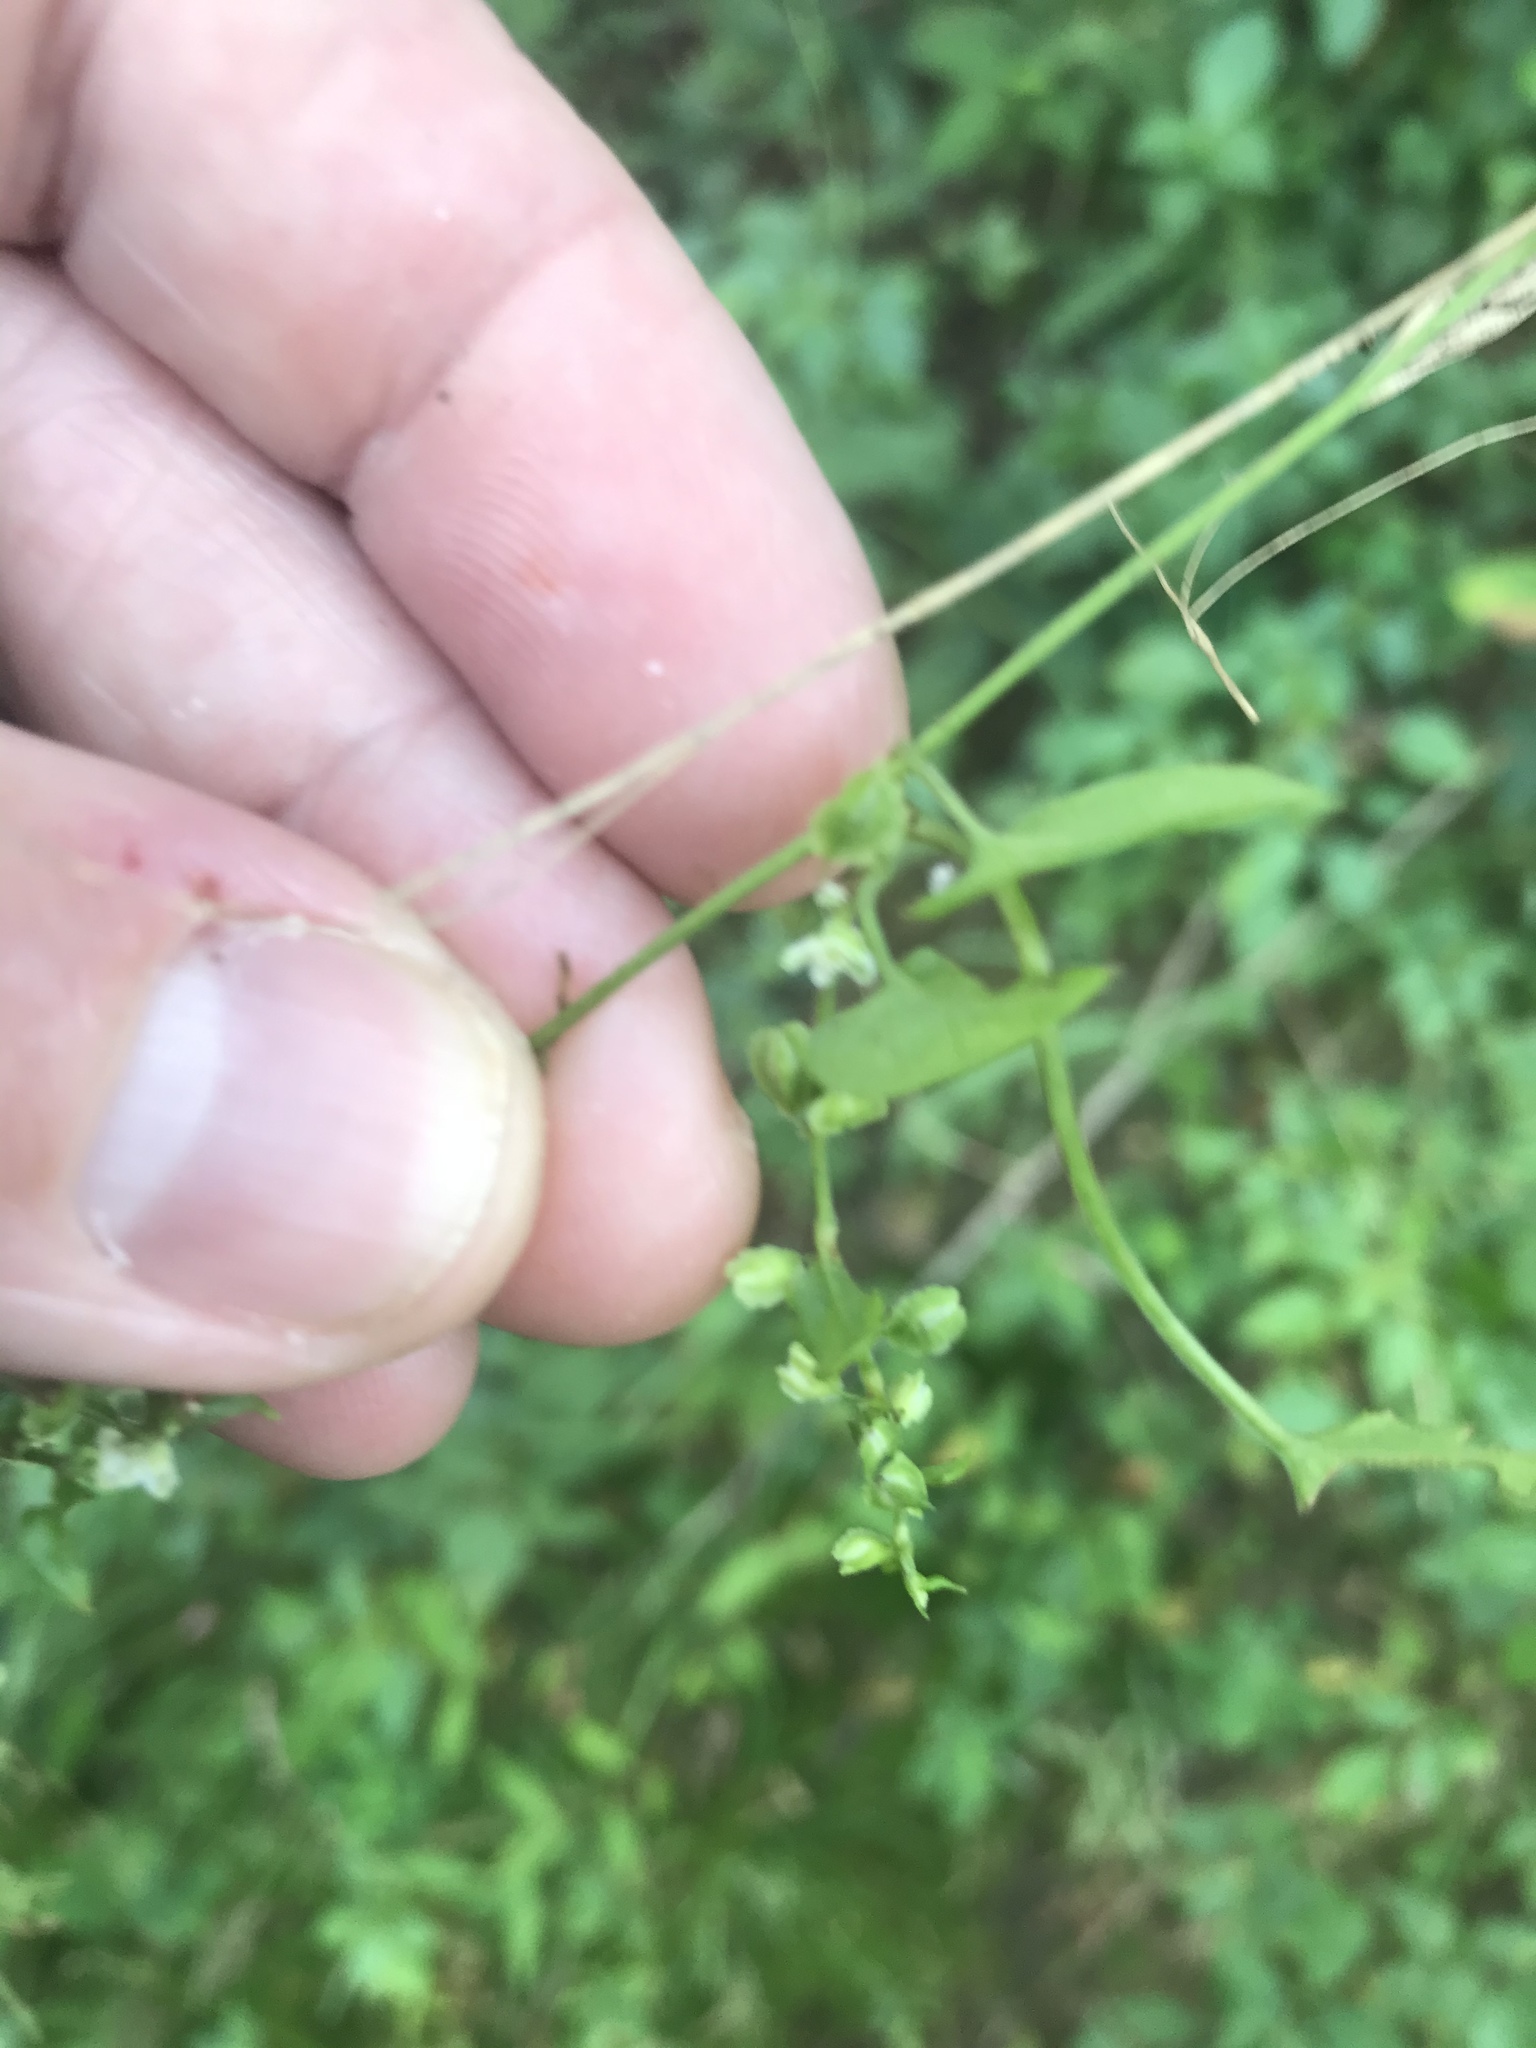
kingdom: Plantae
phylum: Tracheophyta
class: Magnoliopsida
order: Caryophyllales
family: Polygonaceae
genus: Fallopia
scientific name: Fallopia scandens
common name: Climbing false buckwheat
